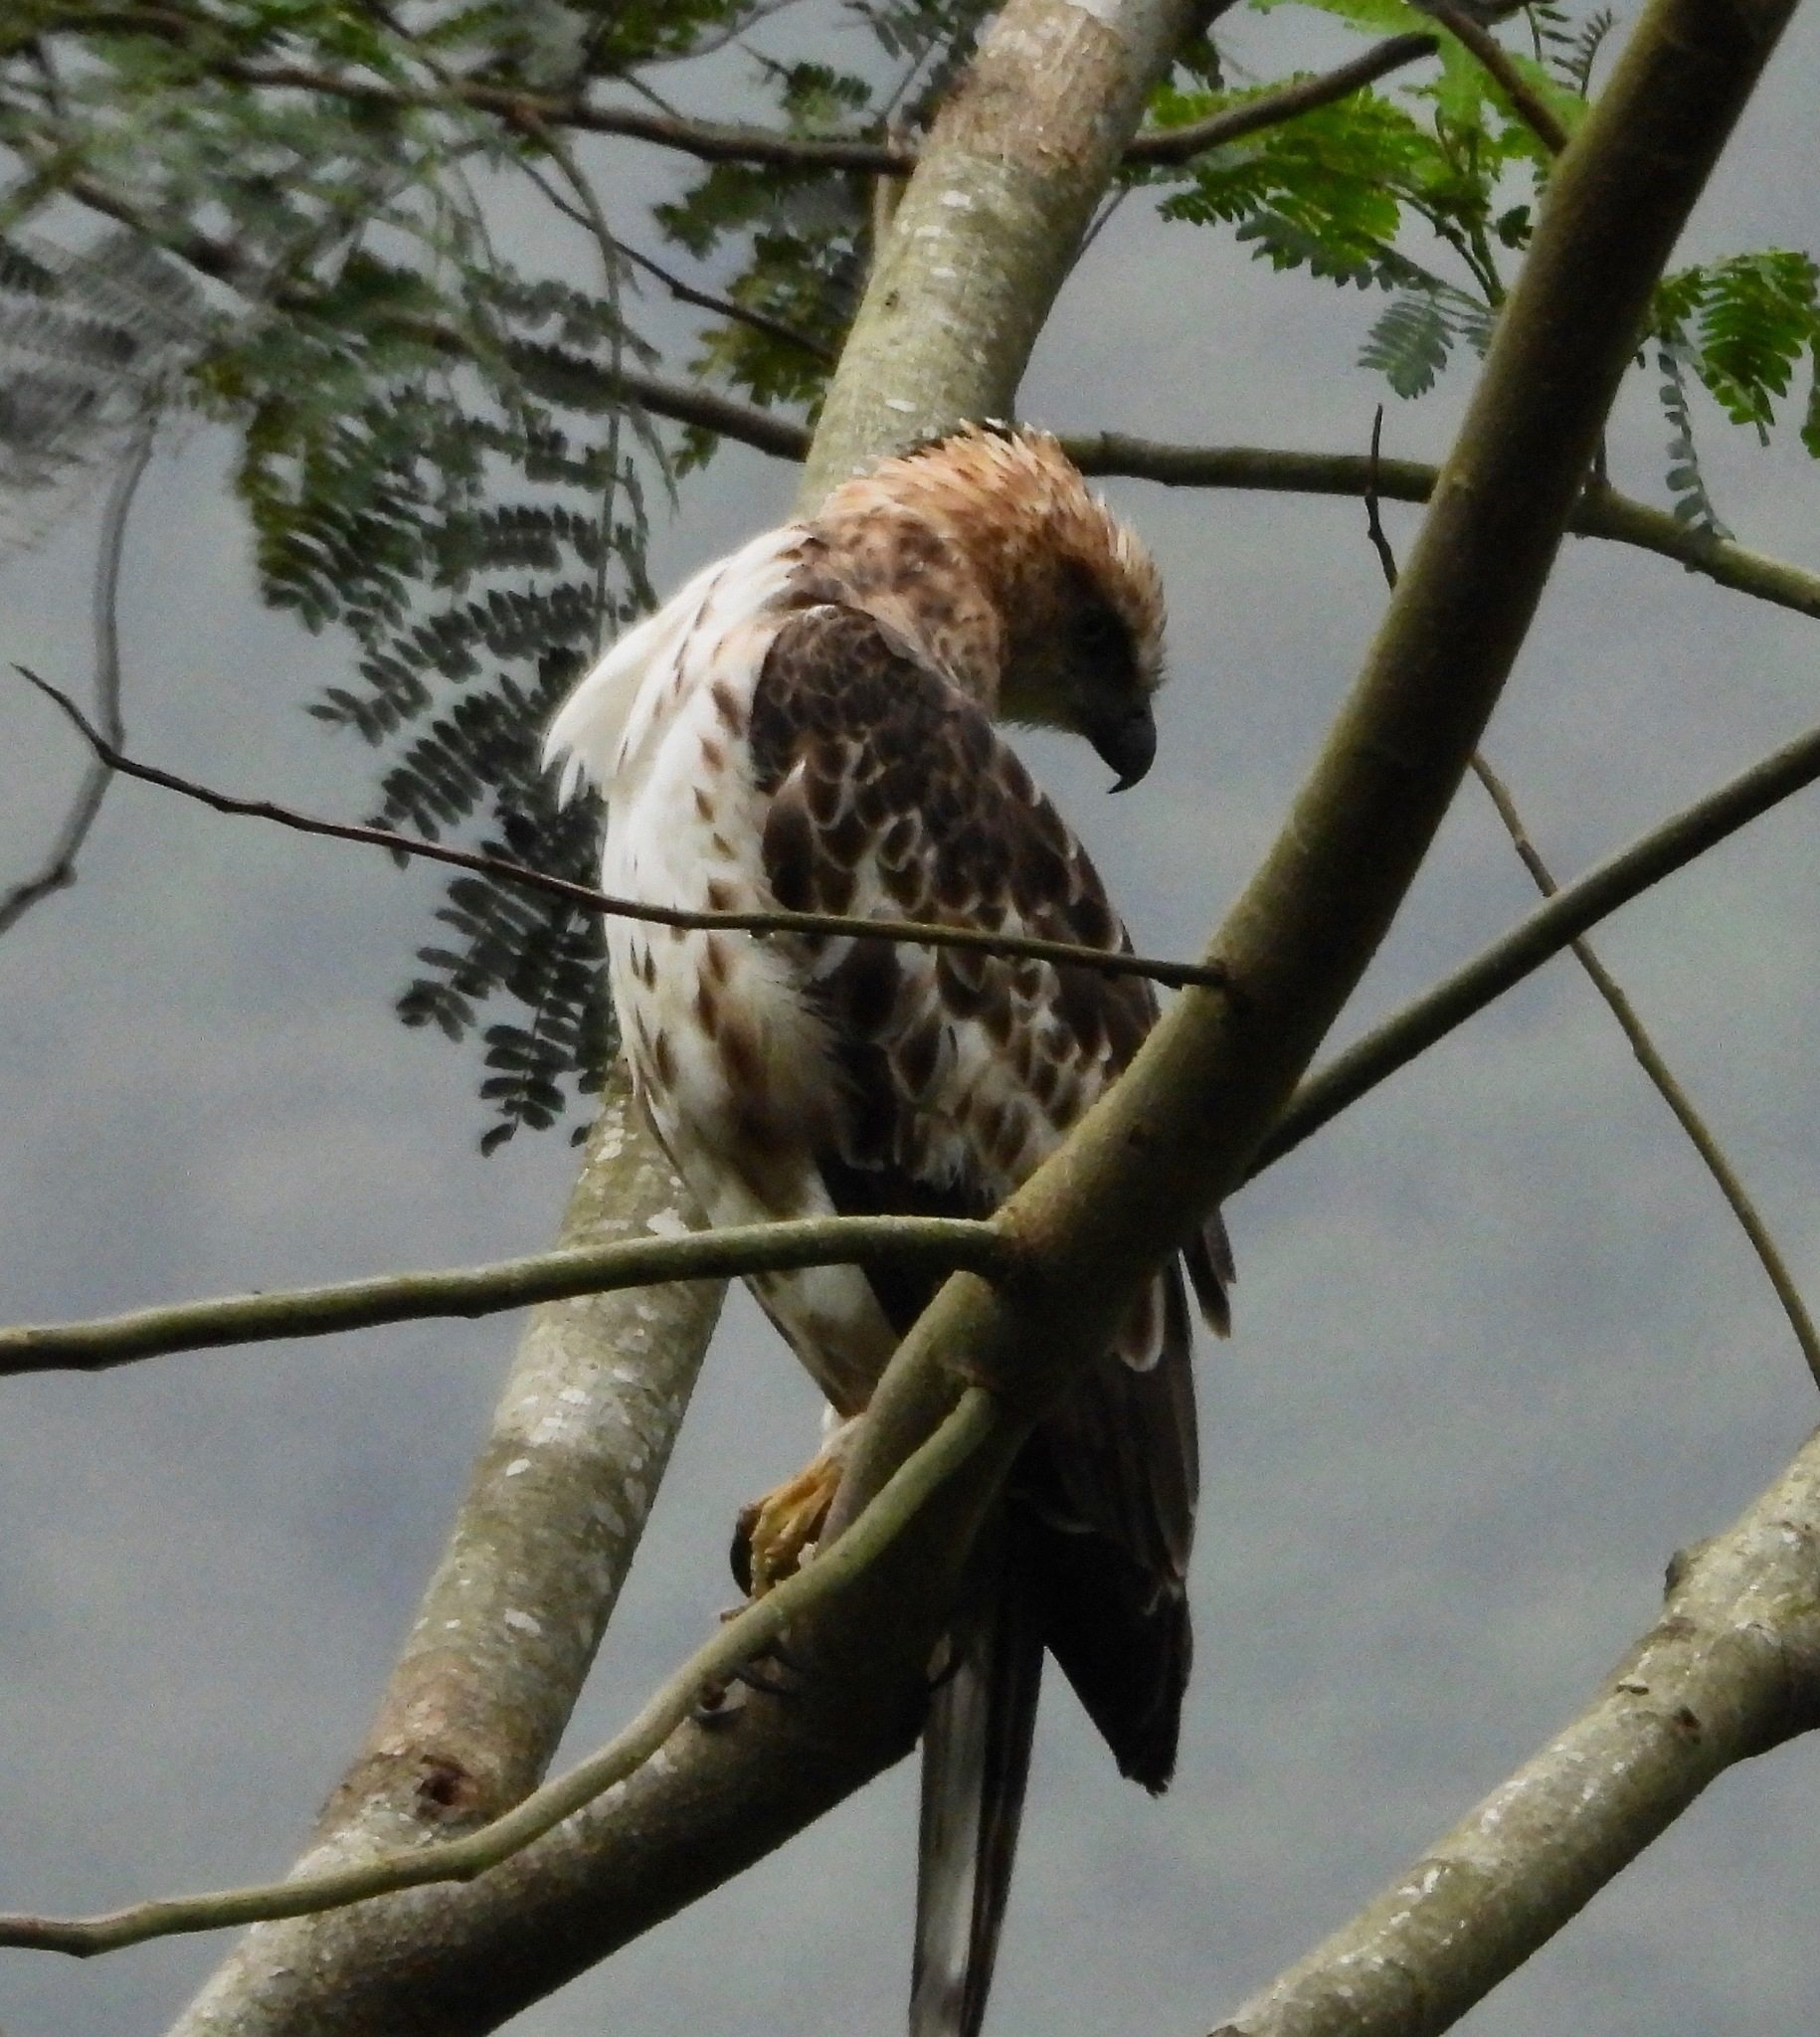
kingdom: Animalia
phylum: Chordata
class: Aves
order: Accipitriformes
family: Accipitridae
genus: Nisaetus
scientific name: Nisaetus cirrhatus
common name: Changeable hawk-eagle
